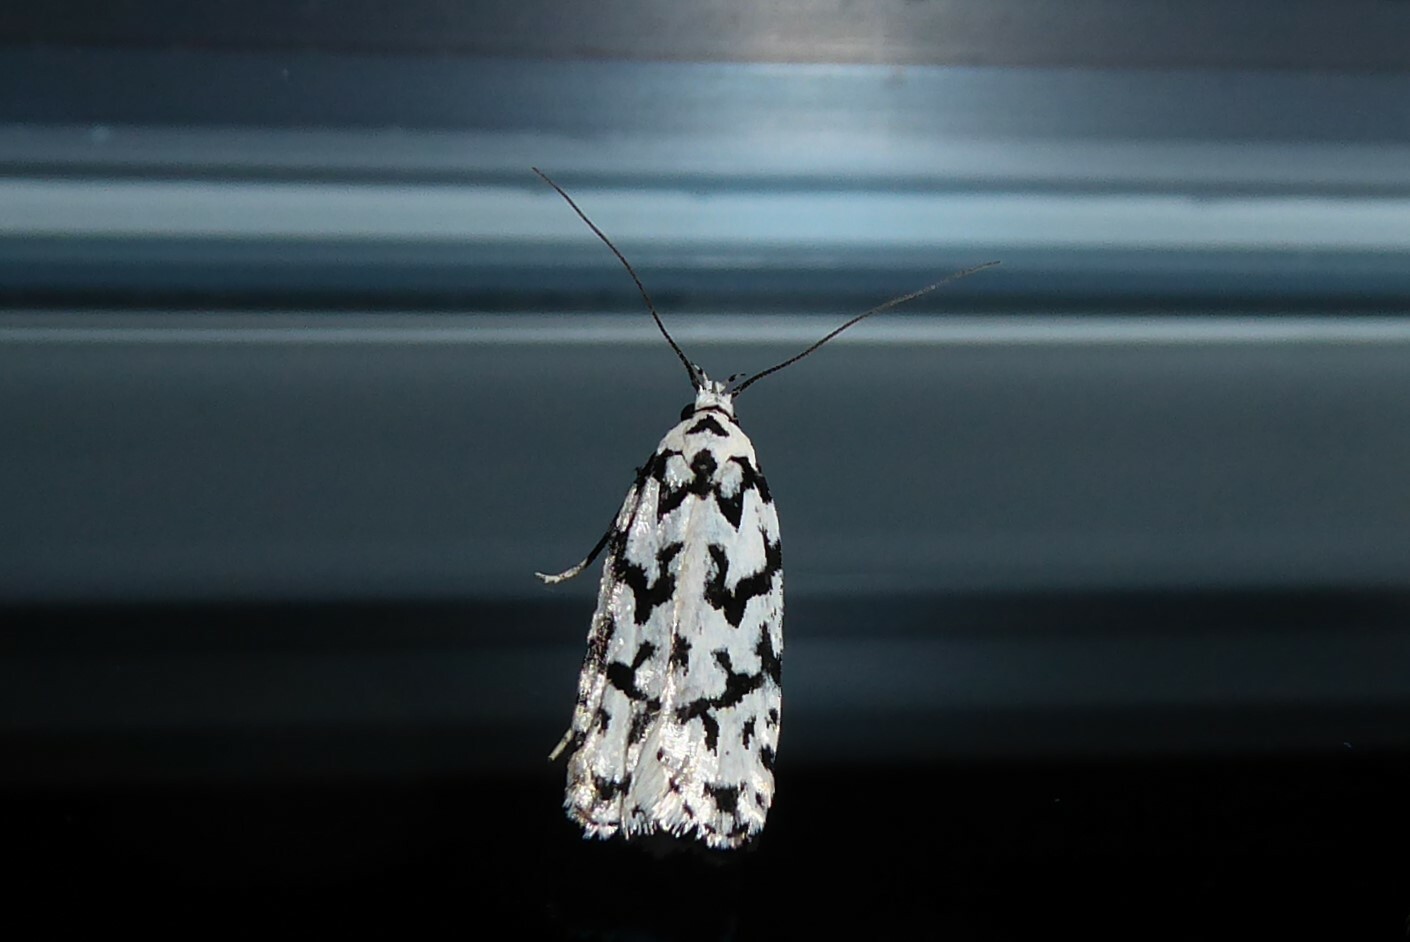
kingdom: Animalia
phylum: Arthropoda
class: Insecta
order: Lepidoptera
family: Oecophoridae
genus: Izatha
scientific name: Izatha katadiktya
